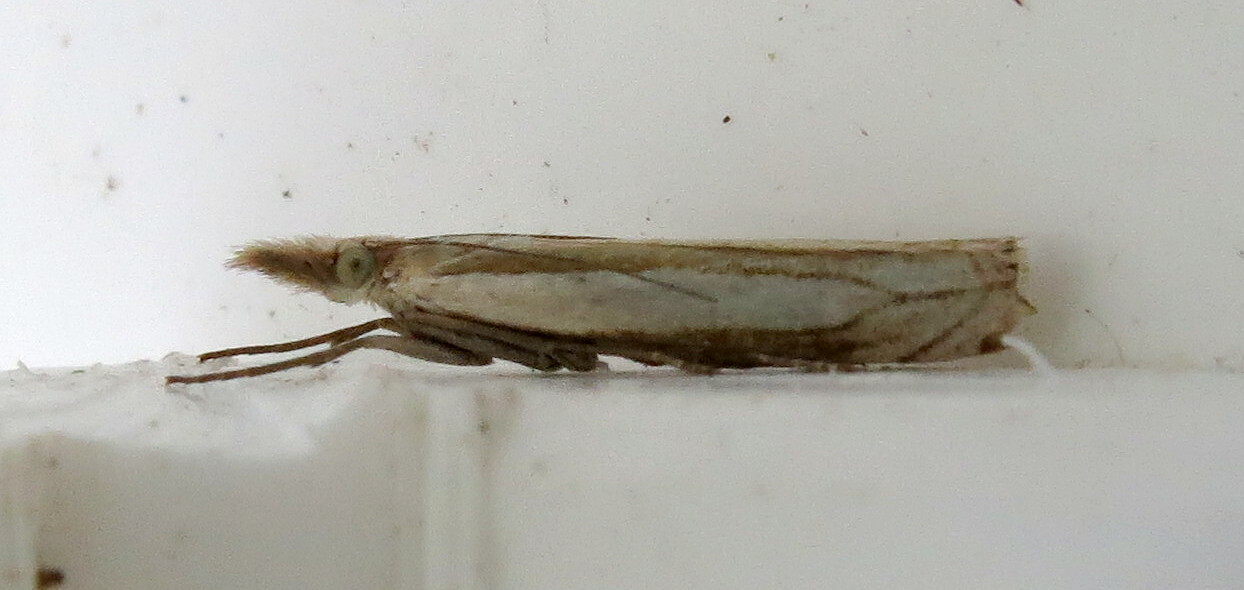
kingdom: Animalia
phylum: Arthropoda
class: Insecta
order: Lepidoptera
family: Crambidae
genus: Crambus
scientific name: Crambus pascuella
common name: Inlaid grass-veneer
